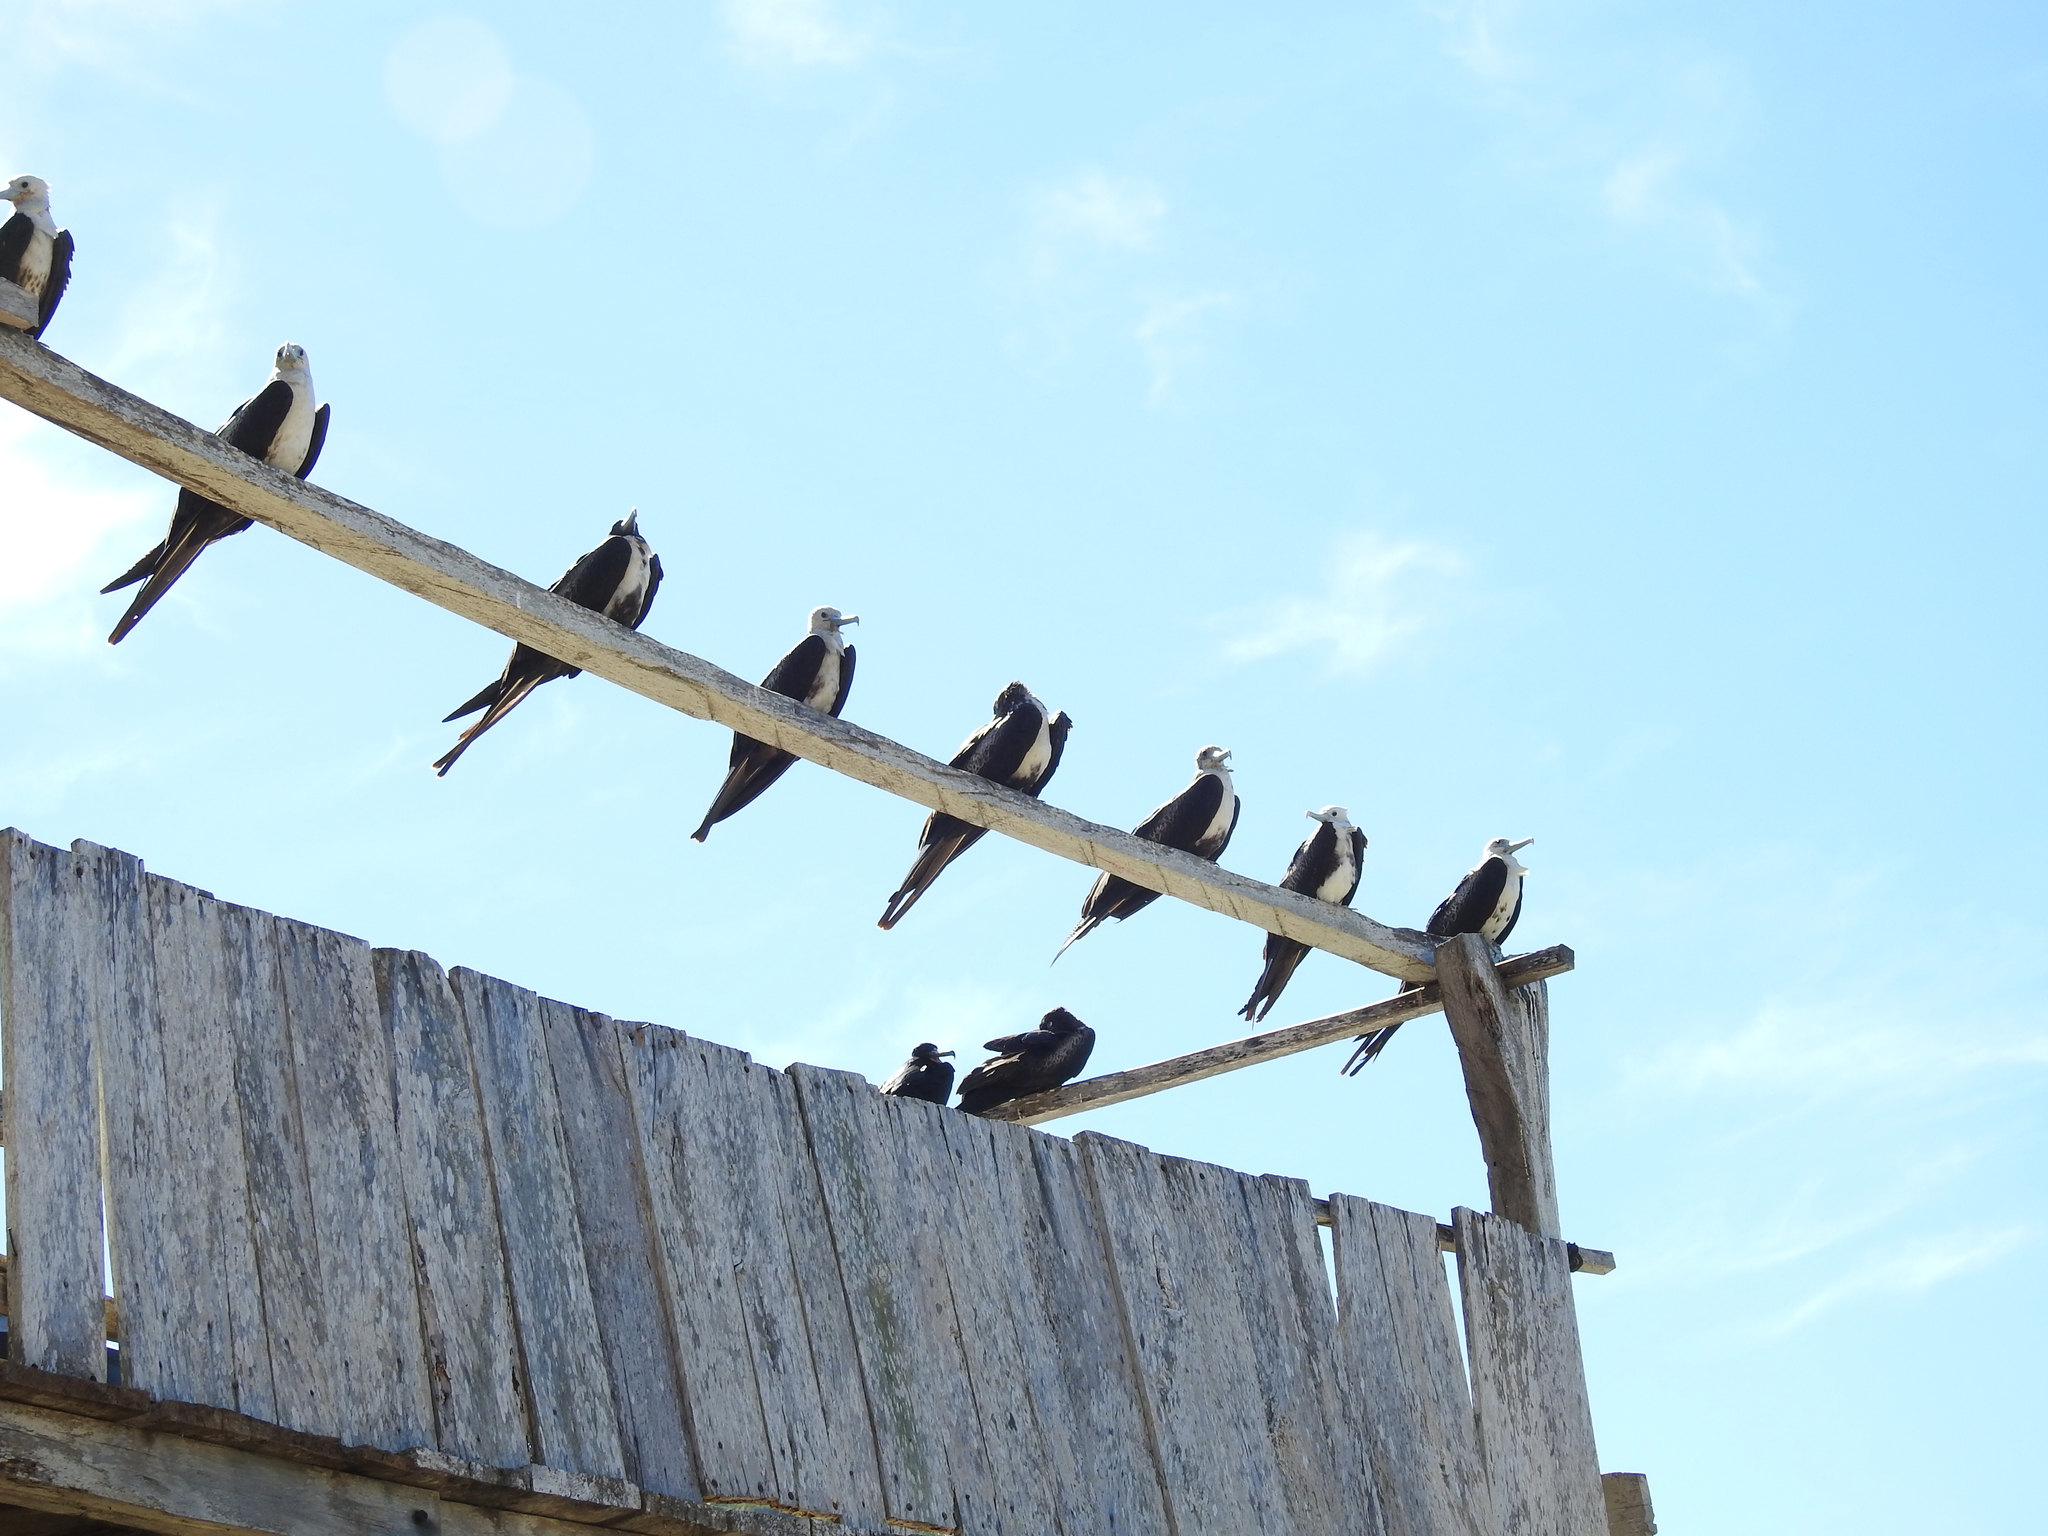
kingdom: Animalia
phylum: Chordata
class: Aves
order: Suliformes
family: Fregatidae
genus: Fregata
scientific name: Fregata magnificens
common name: Magnificent frigatebird
